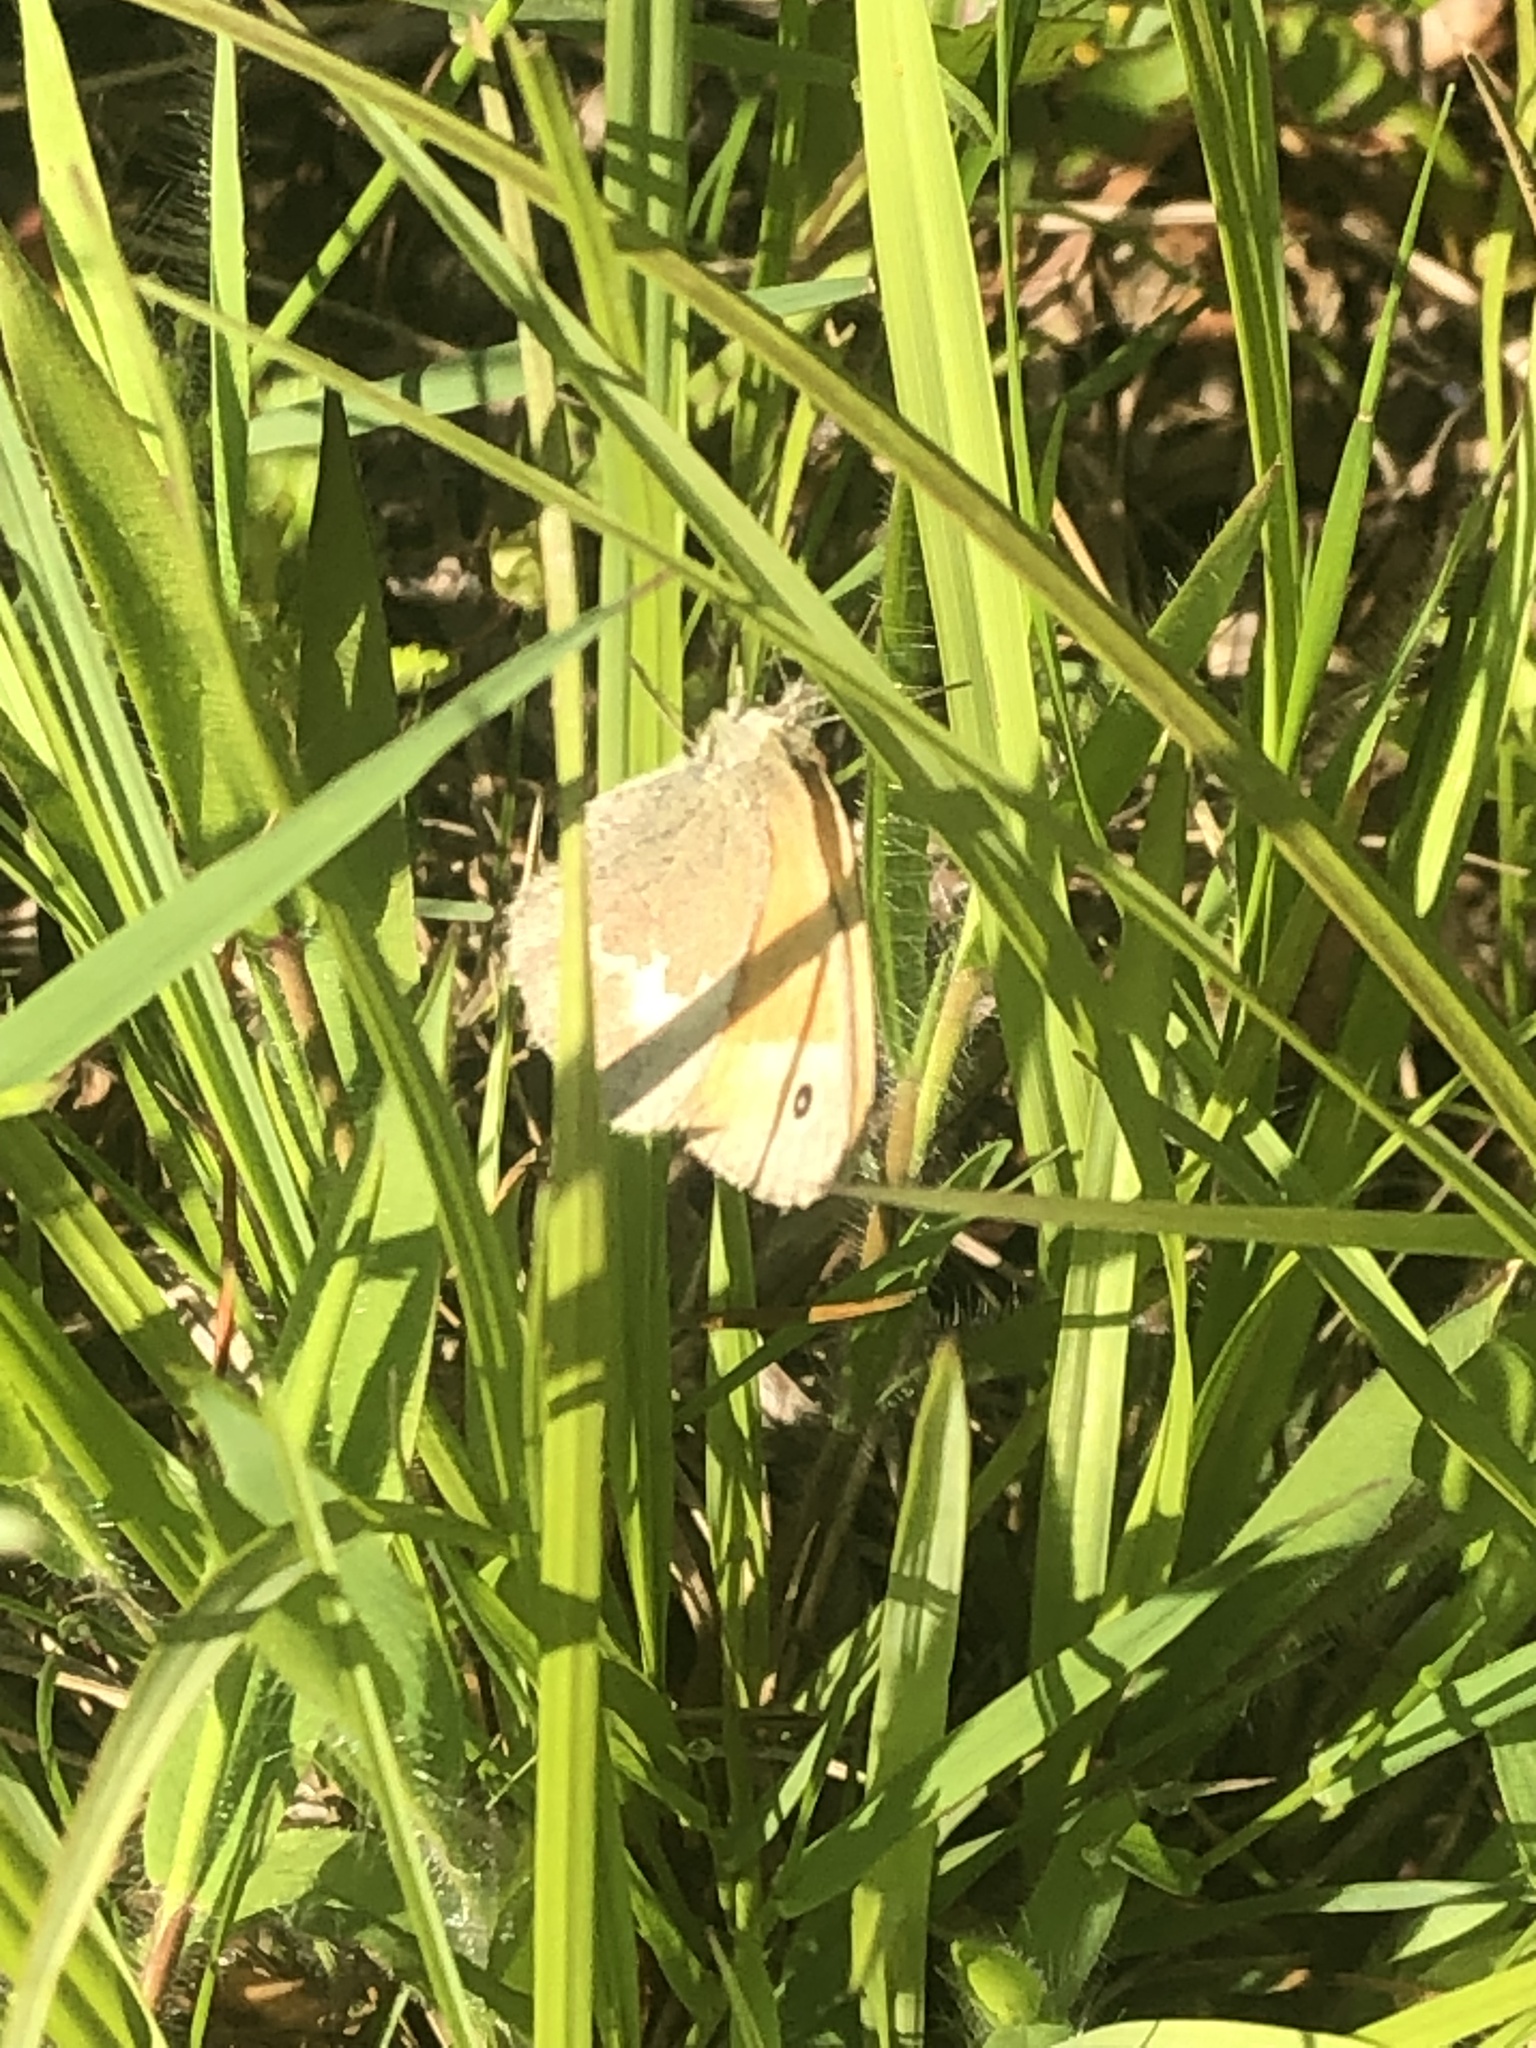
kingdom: Animalia
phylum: Arthropoda
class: Insecta
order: Lepidoptera
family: Nymphalidae
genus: Coenonympha
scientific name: Coenonympha california
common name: Common ringlet
